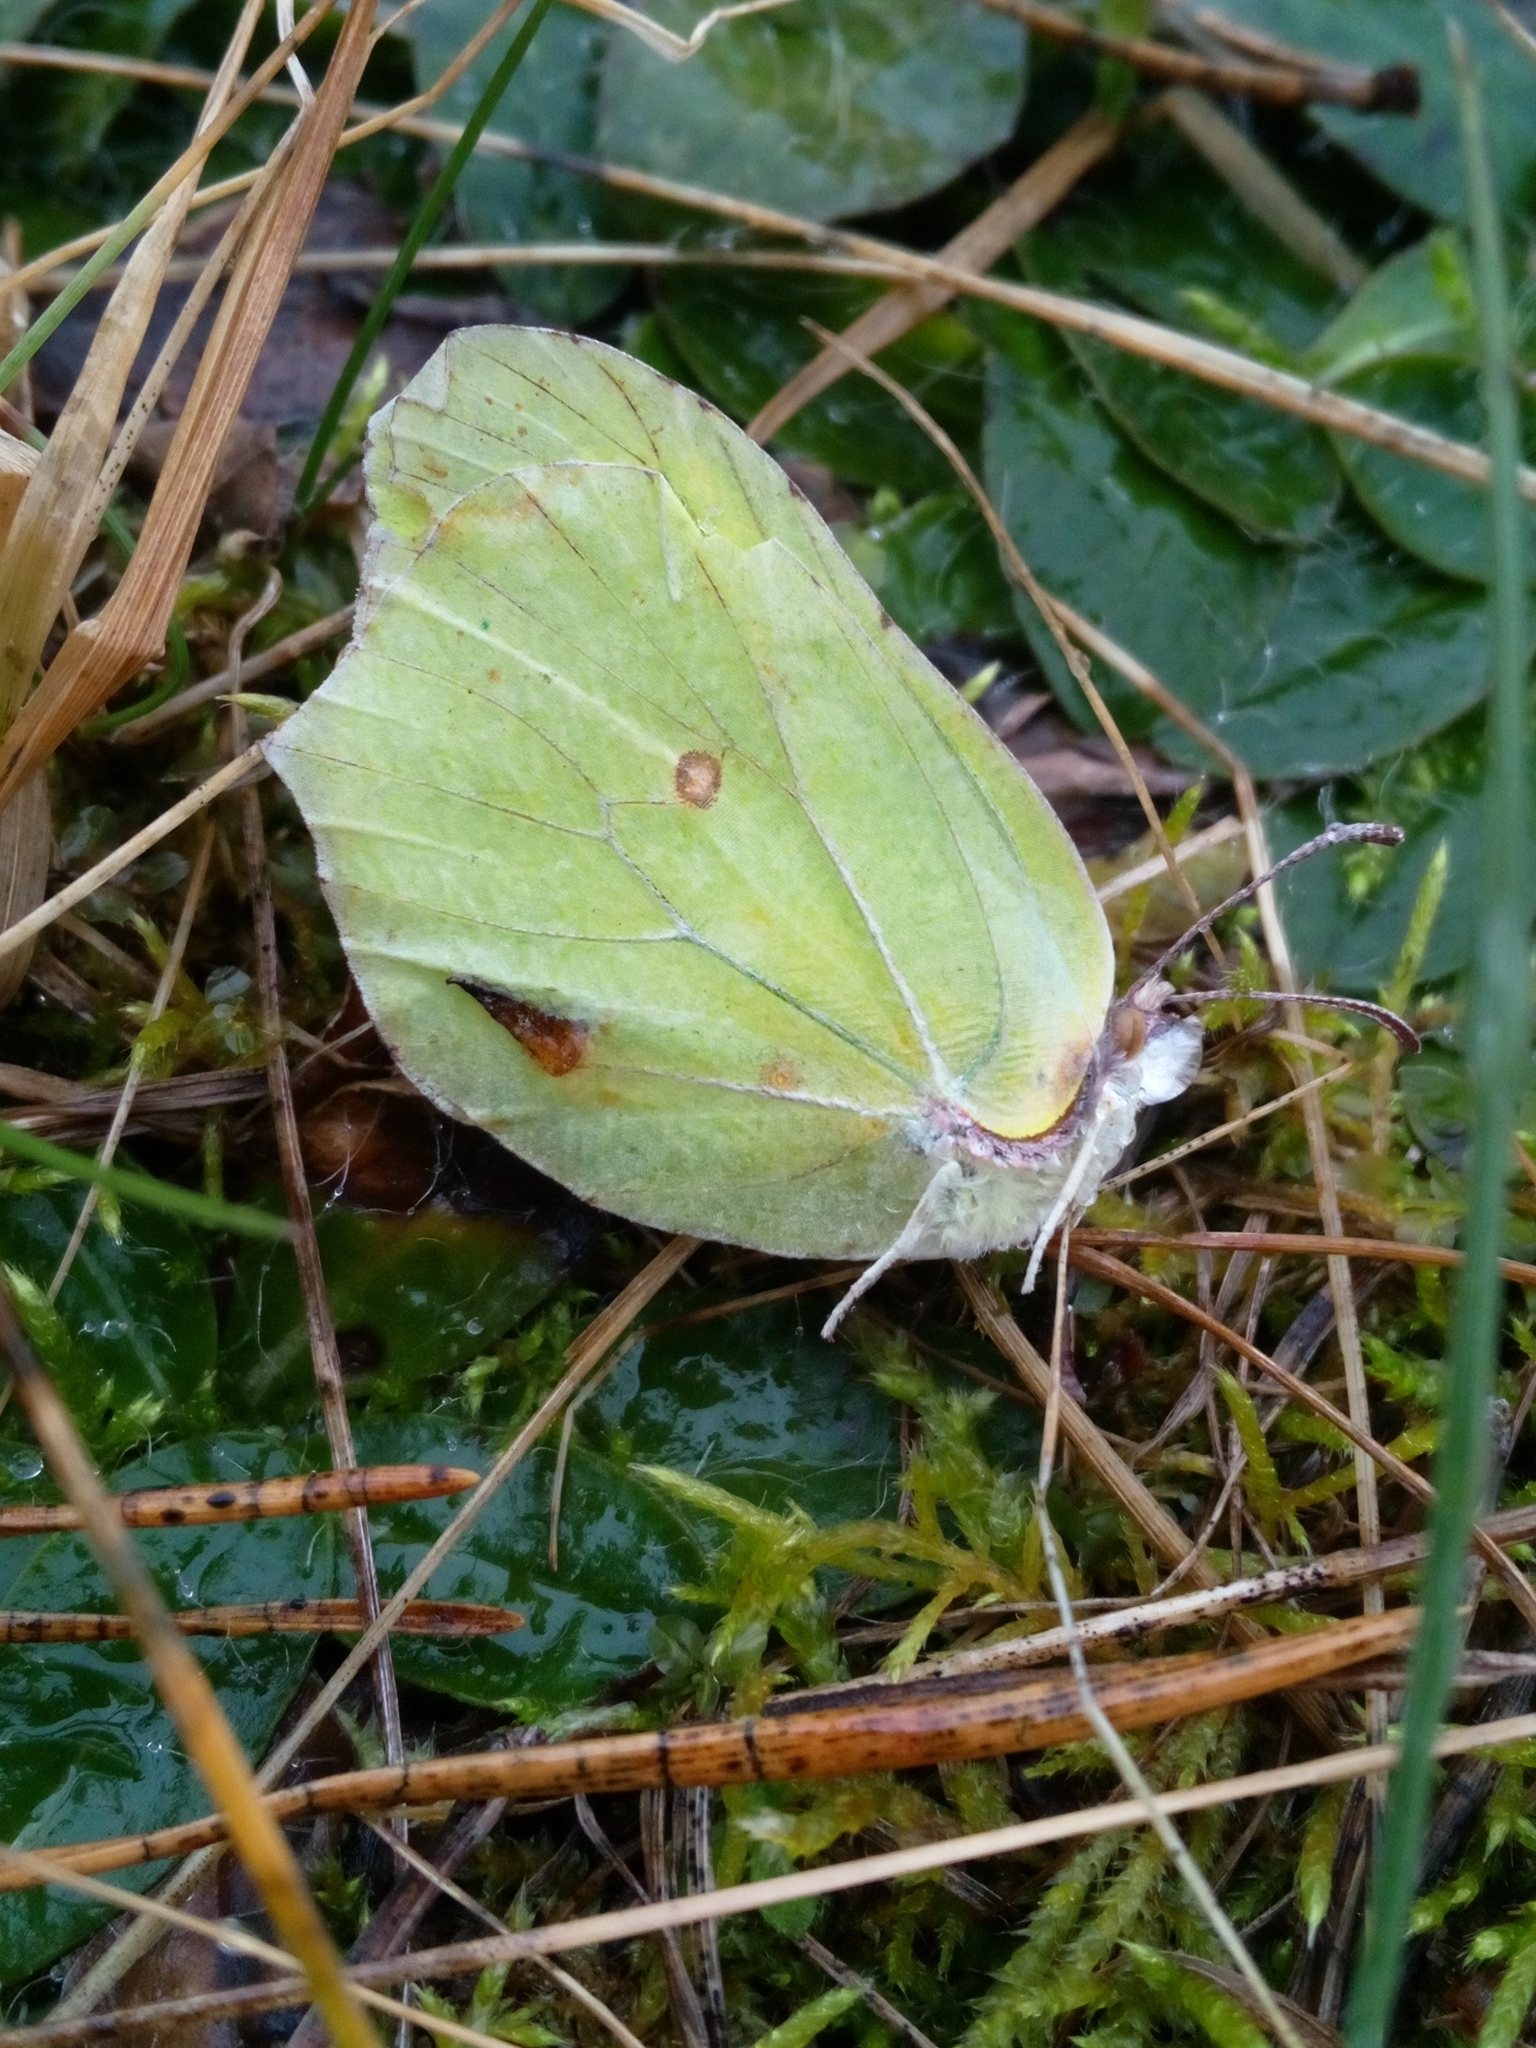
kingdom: Animalia
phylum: Arthropoda
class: Insecta
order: Lepidoptera
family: Pieridae
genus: Gonepteryx
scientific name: Gonepteryx rhamni
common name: Brimstone
